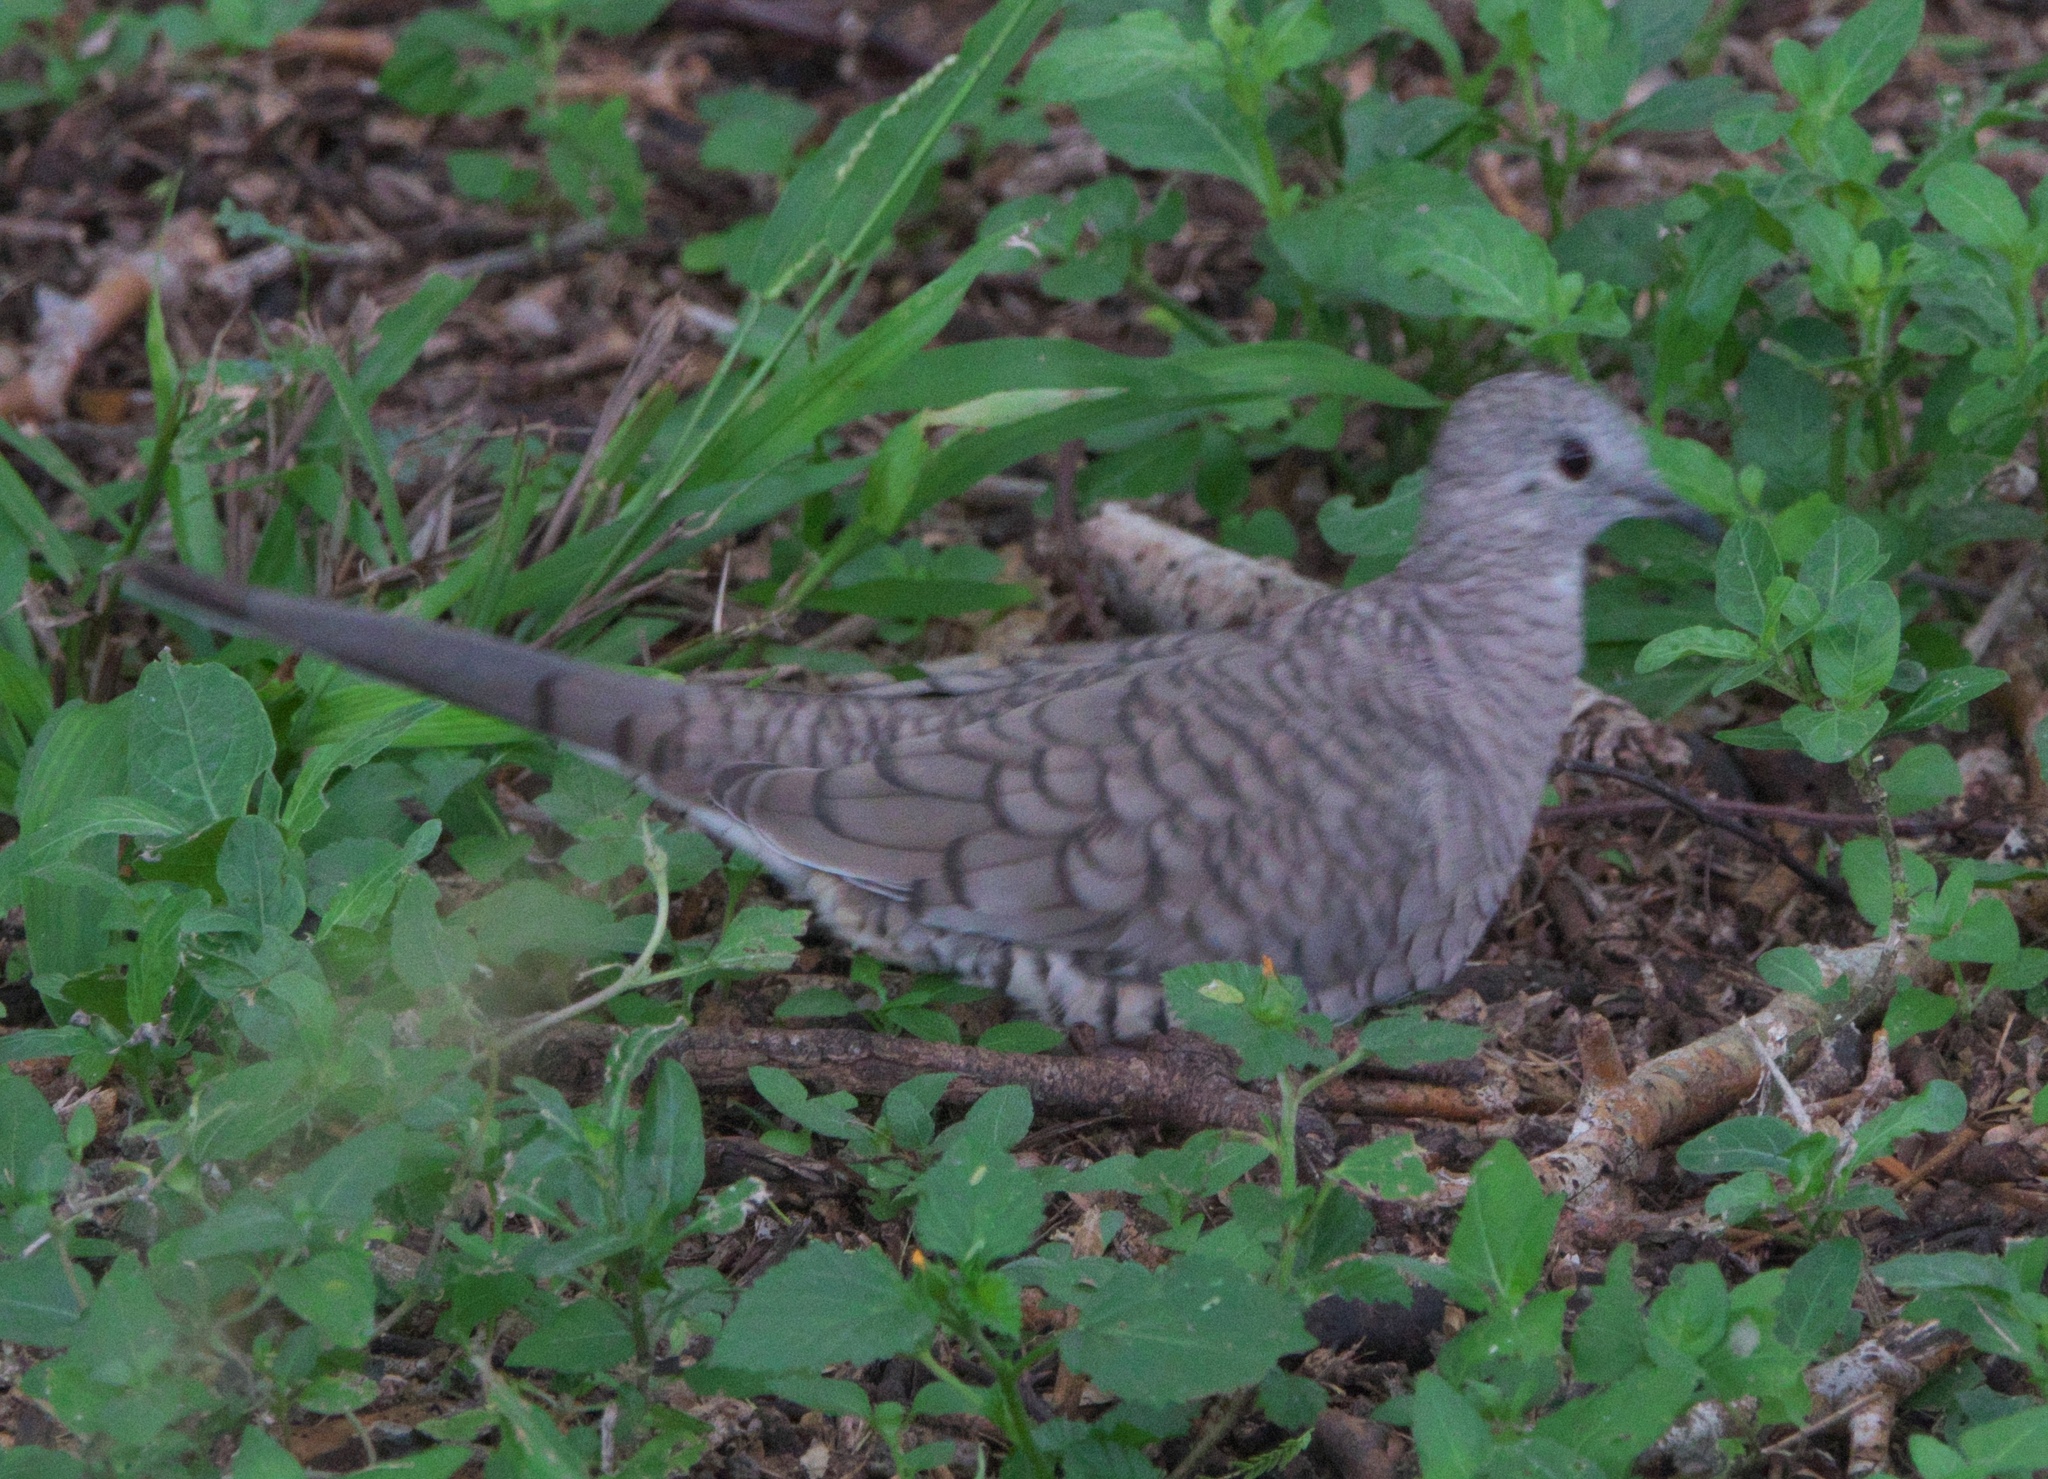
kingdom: Animalia
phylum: Chordata
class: Aves
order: Columbiformes
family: Columbidae
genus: Columbina
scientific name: Columbina inca
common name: Inca dove
